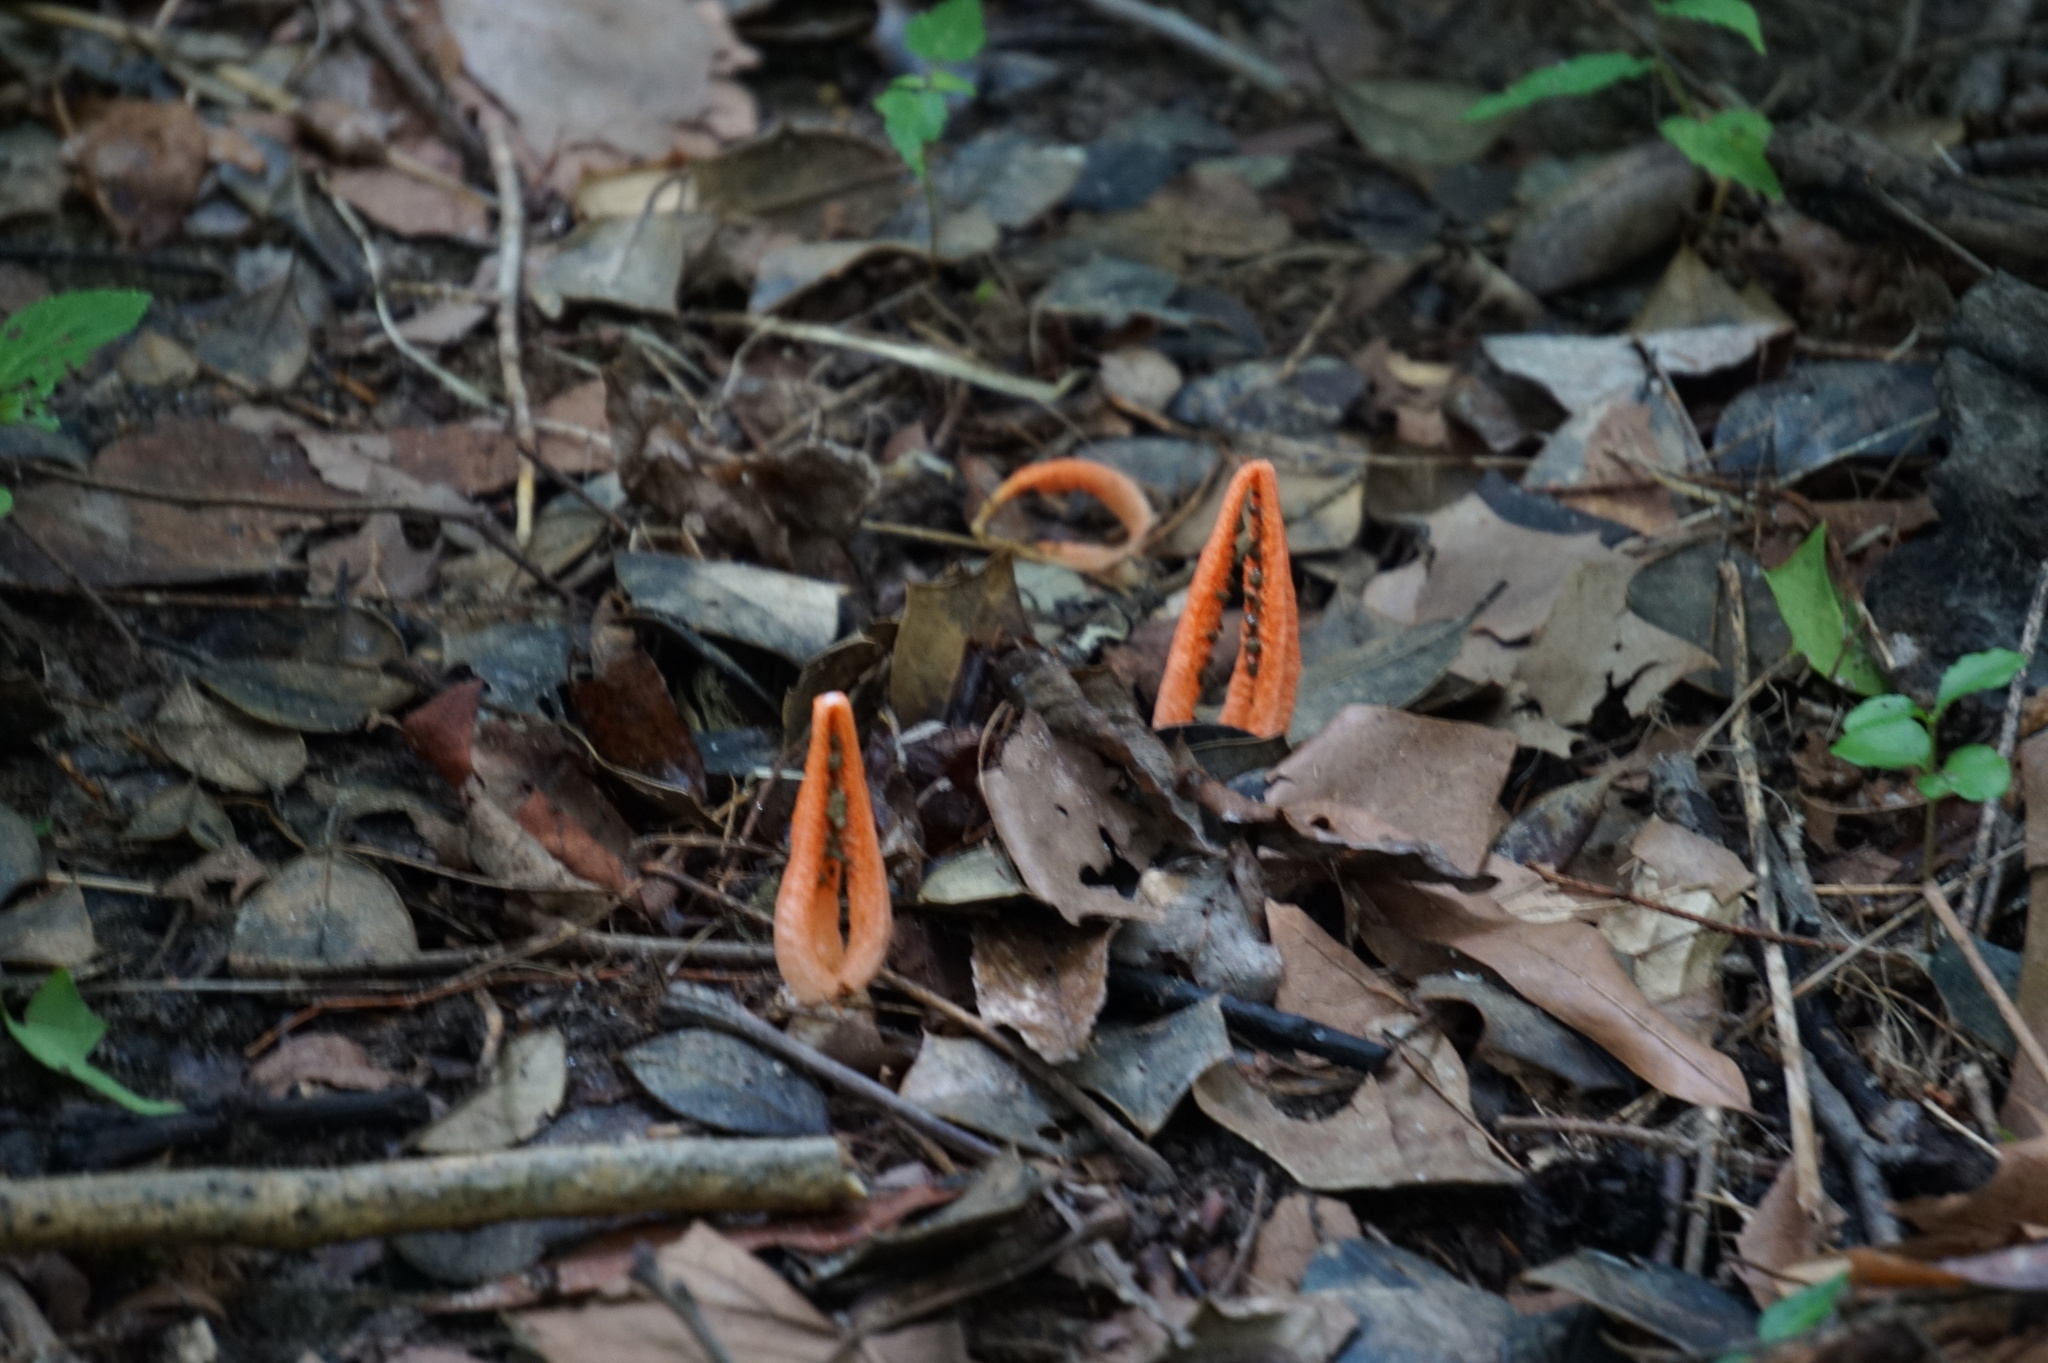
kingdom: Fungi
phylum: Basidiomycota
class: Agaricomycetes
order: Phallales
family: Phallaceae
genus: Pseudocolus
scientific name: Pseudocolus fusiformis
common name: Stinky squid
